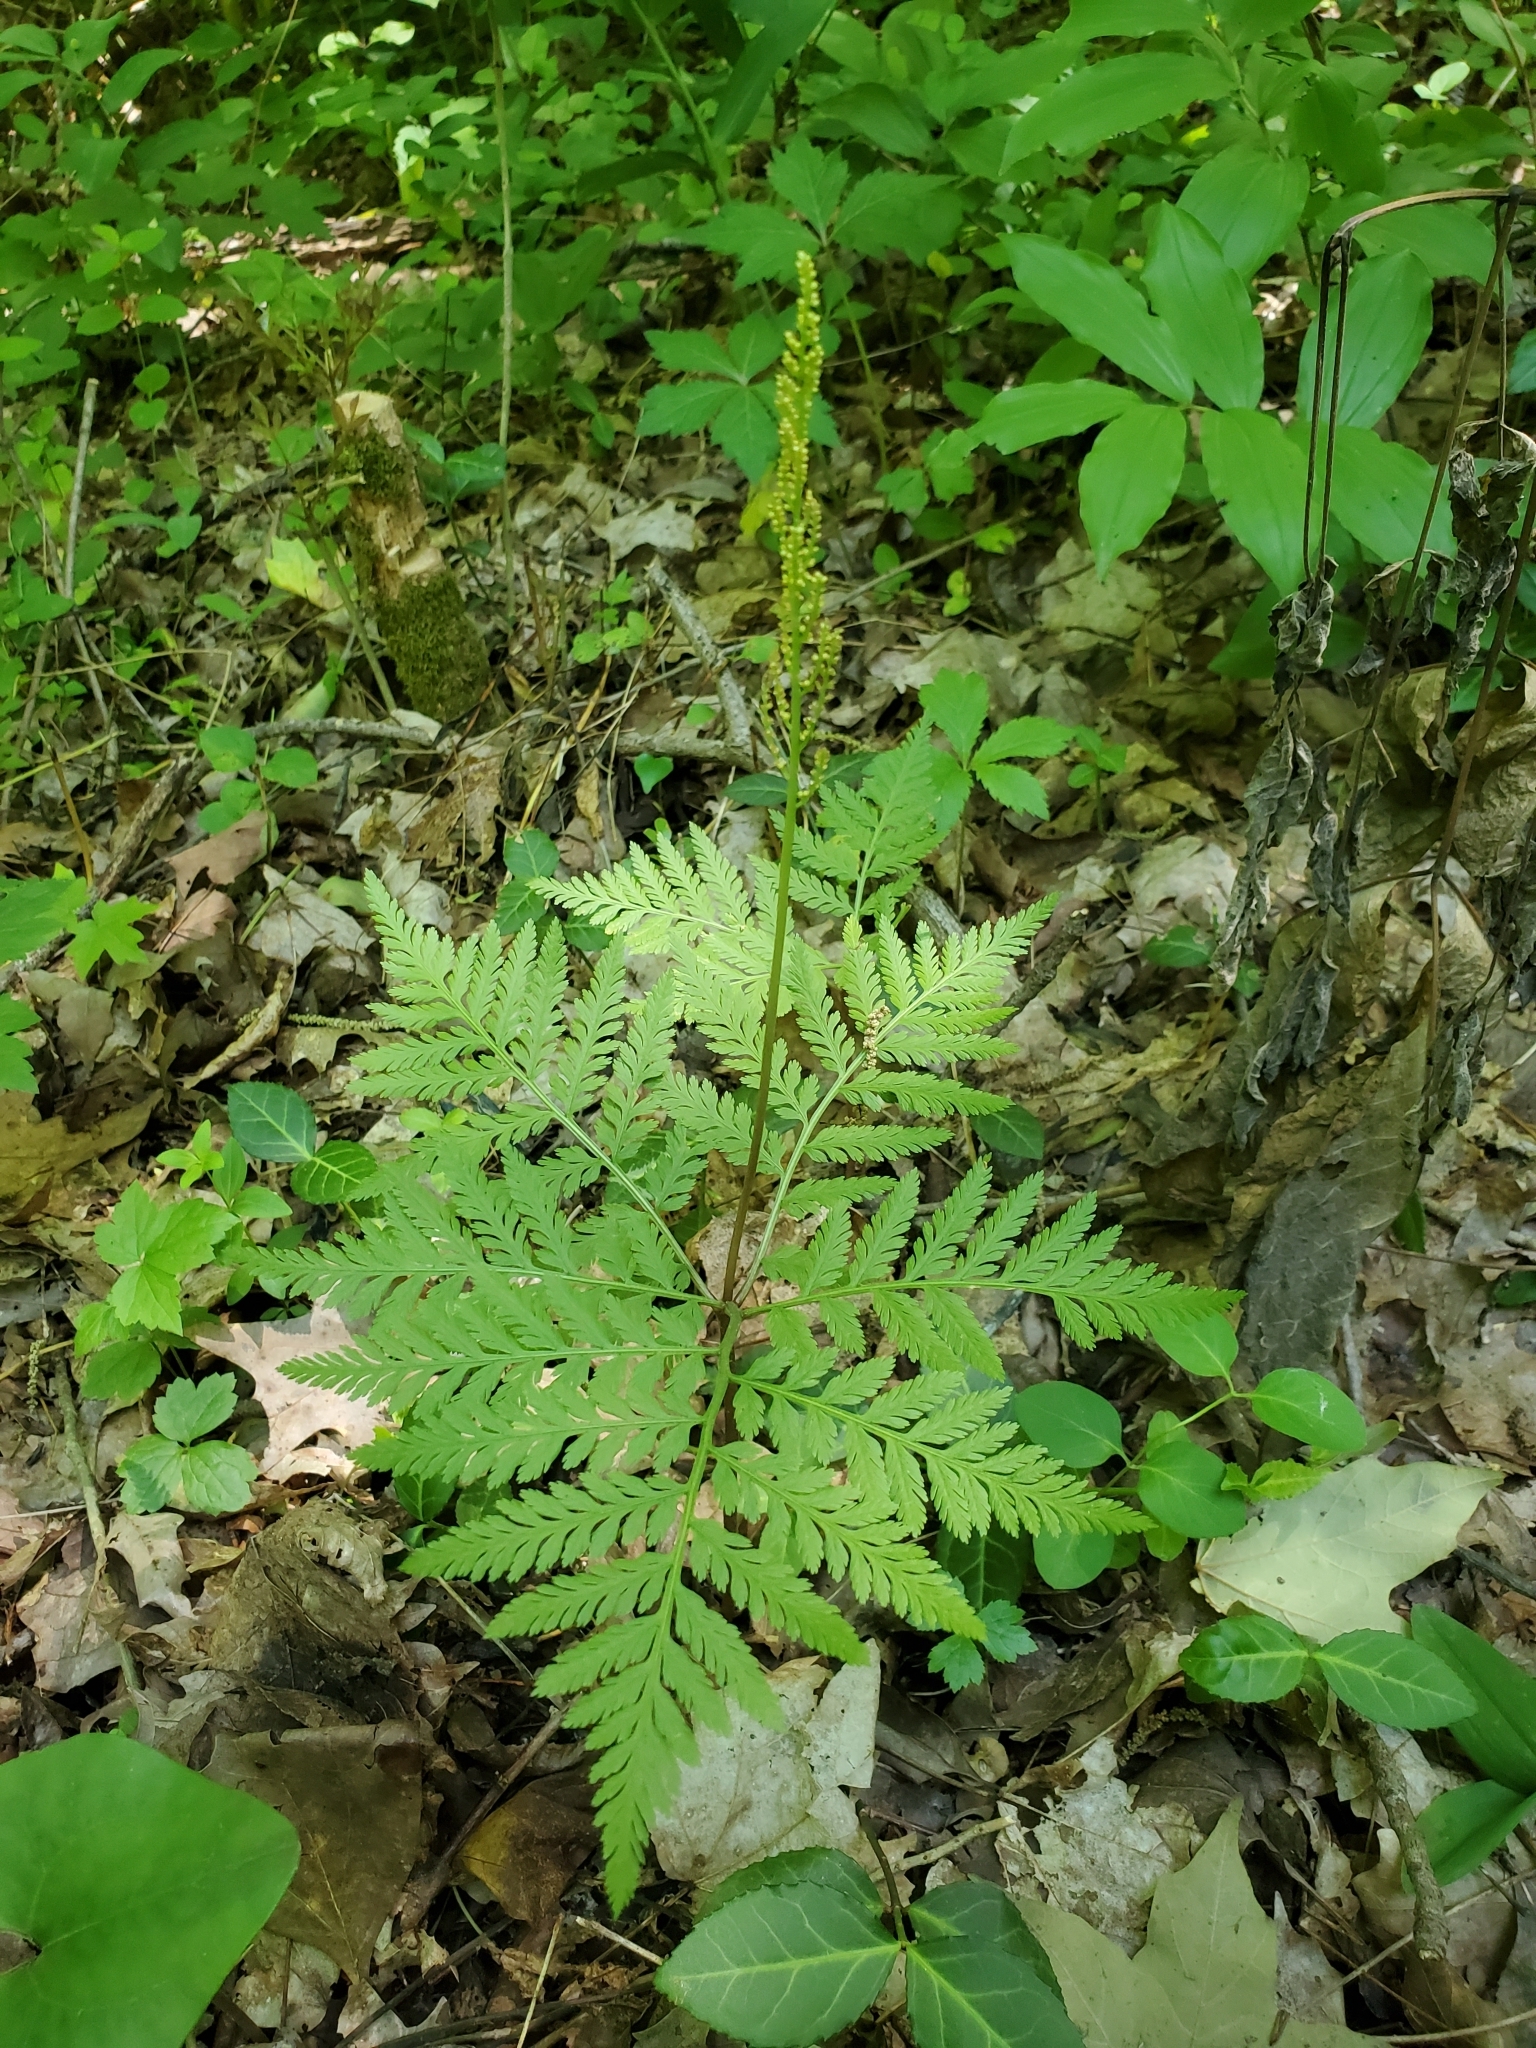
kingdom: Plantae
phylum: Tracheophyta
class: Polypodiopsida
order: Ophioglossales
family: Ophioglossaceae
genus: Botrypus
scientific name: Botrypus virginianus
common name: Common grapefern
